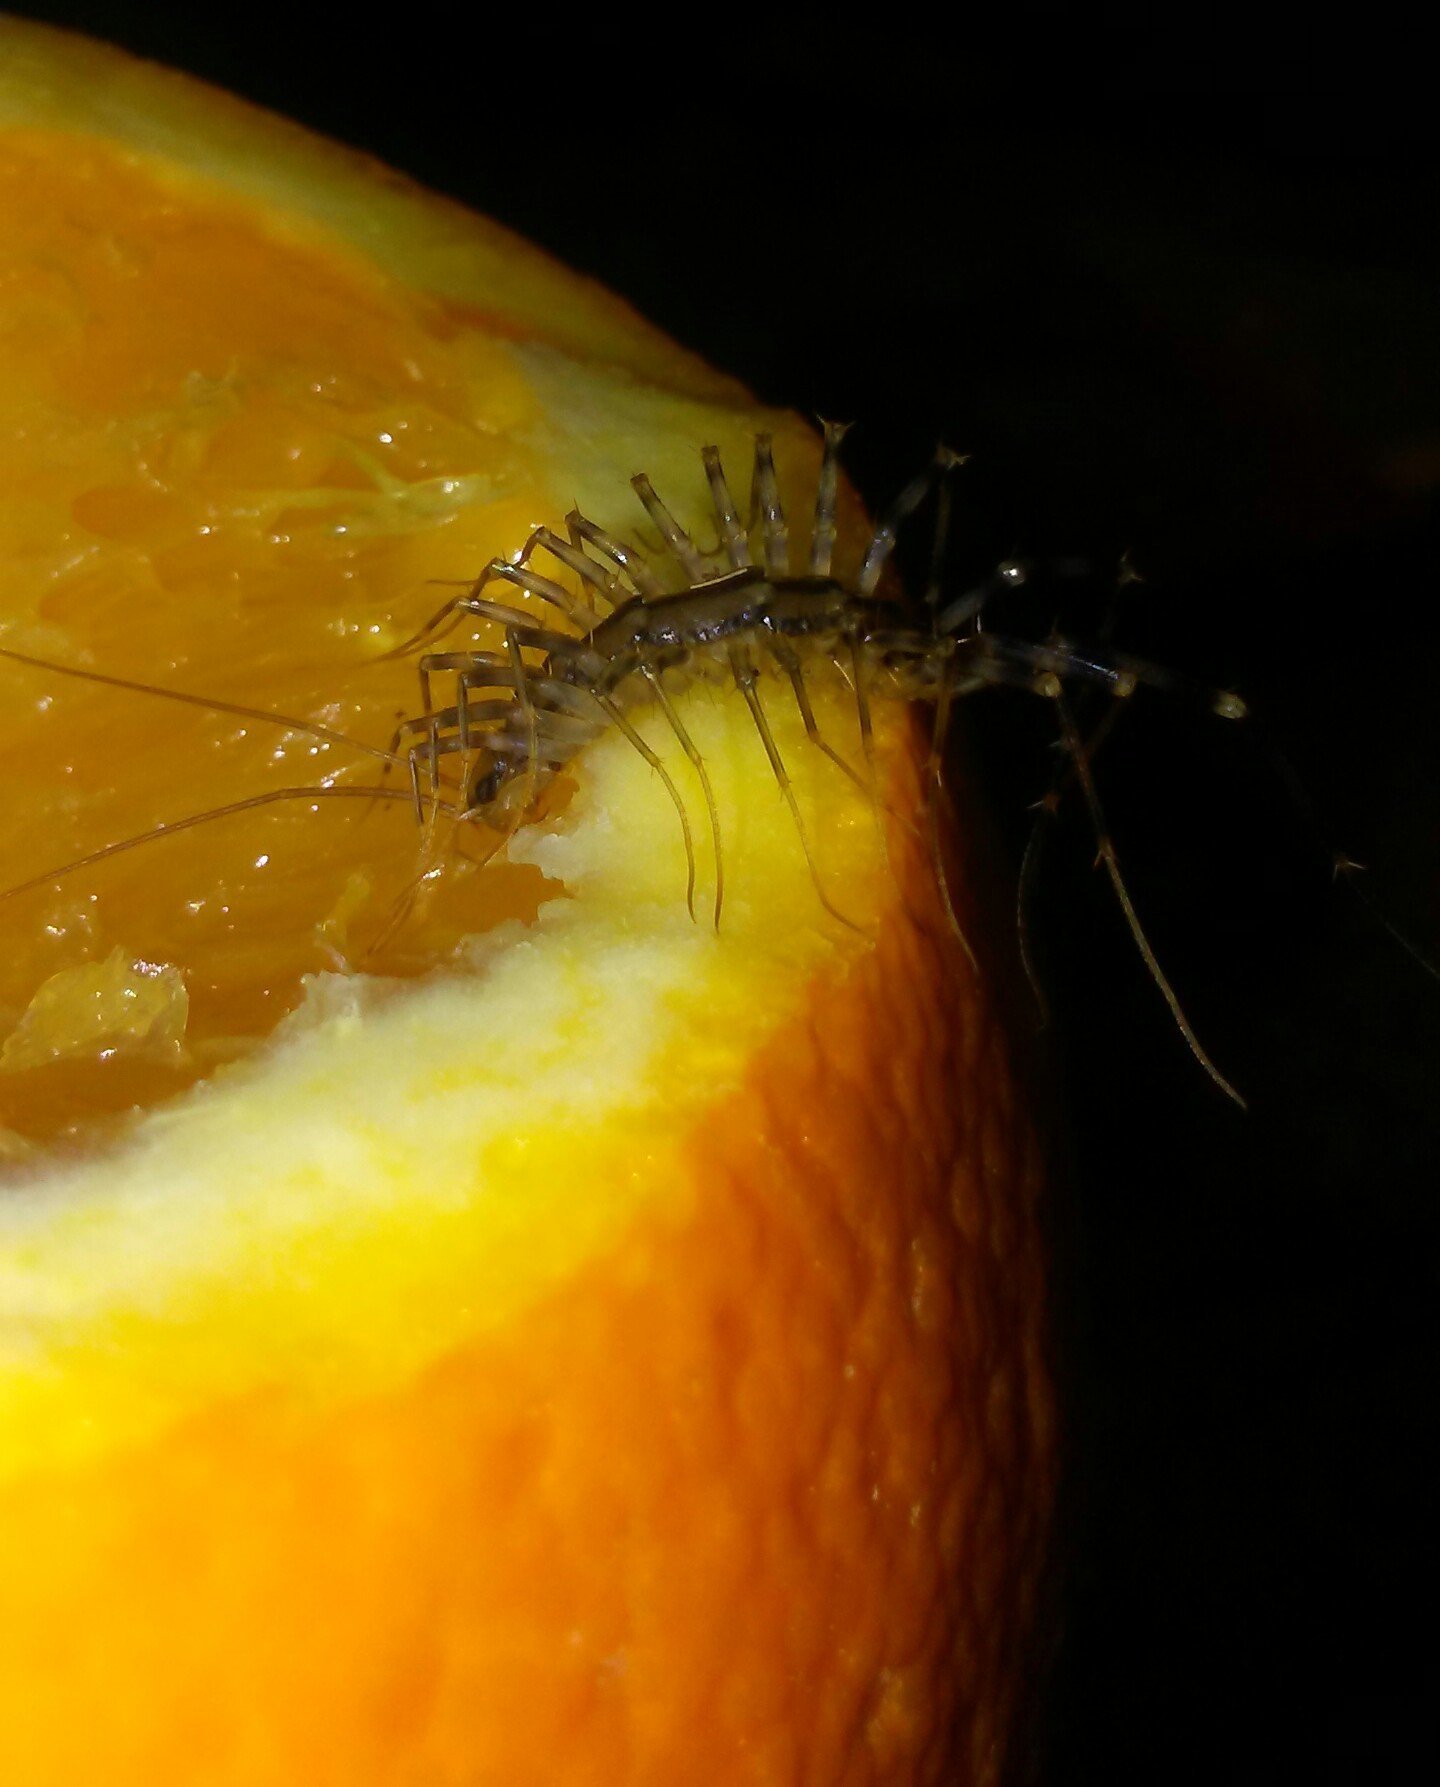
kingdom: Animalia
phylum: Arthropoda
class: Chilopoda
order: Scutigeromorpha
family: Scutigeridae
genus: Scutigera
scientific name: Scutigera coleoptrata
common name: House centipede
